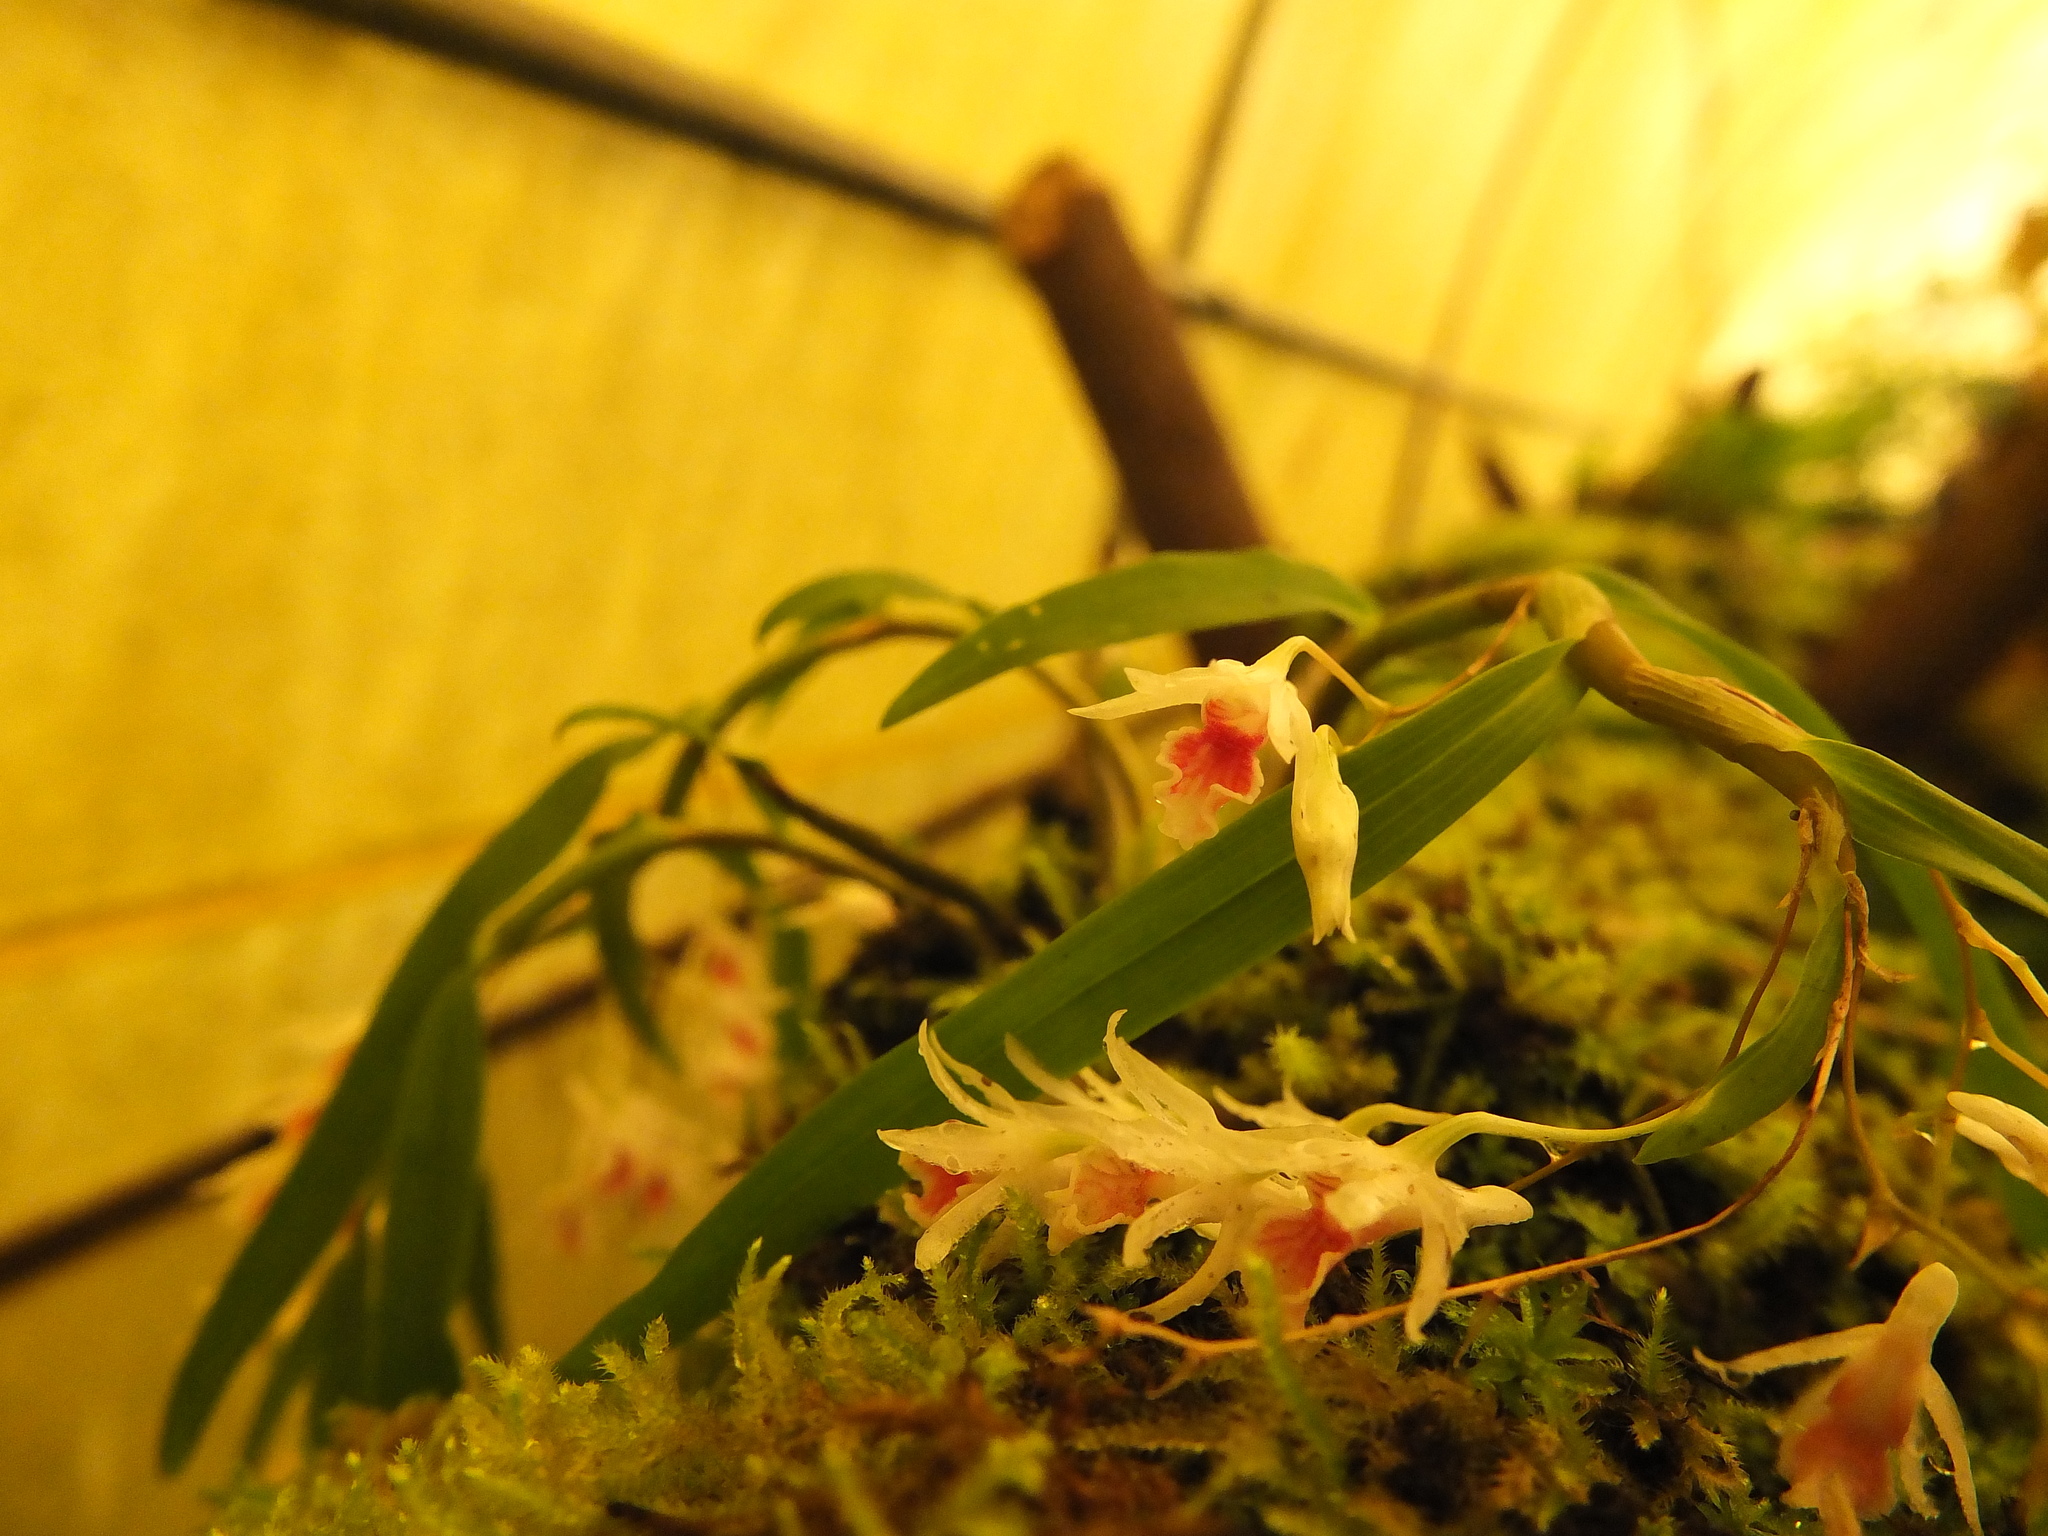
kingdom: Plantae
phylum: Tracheophyta
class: Liliopsida
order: Asparagales
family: Orchidaceae
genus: Dendrobium
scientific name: Dendrobium panduratum
